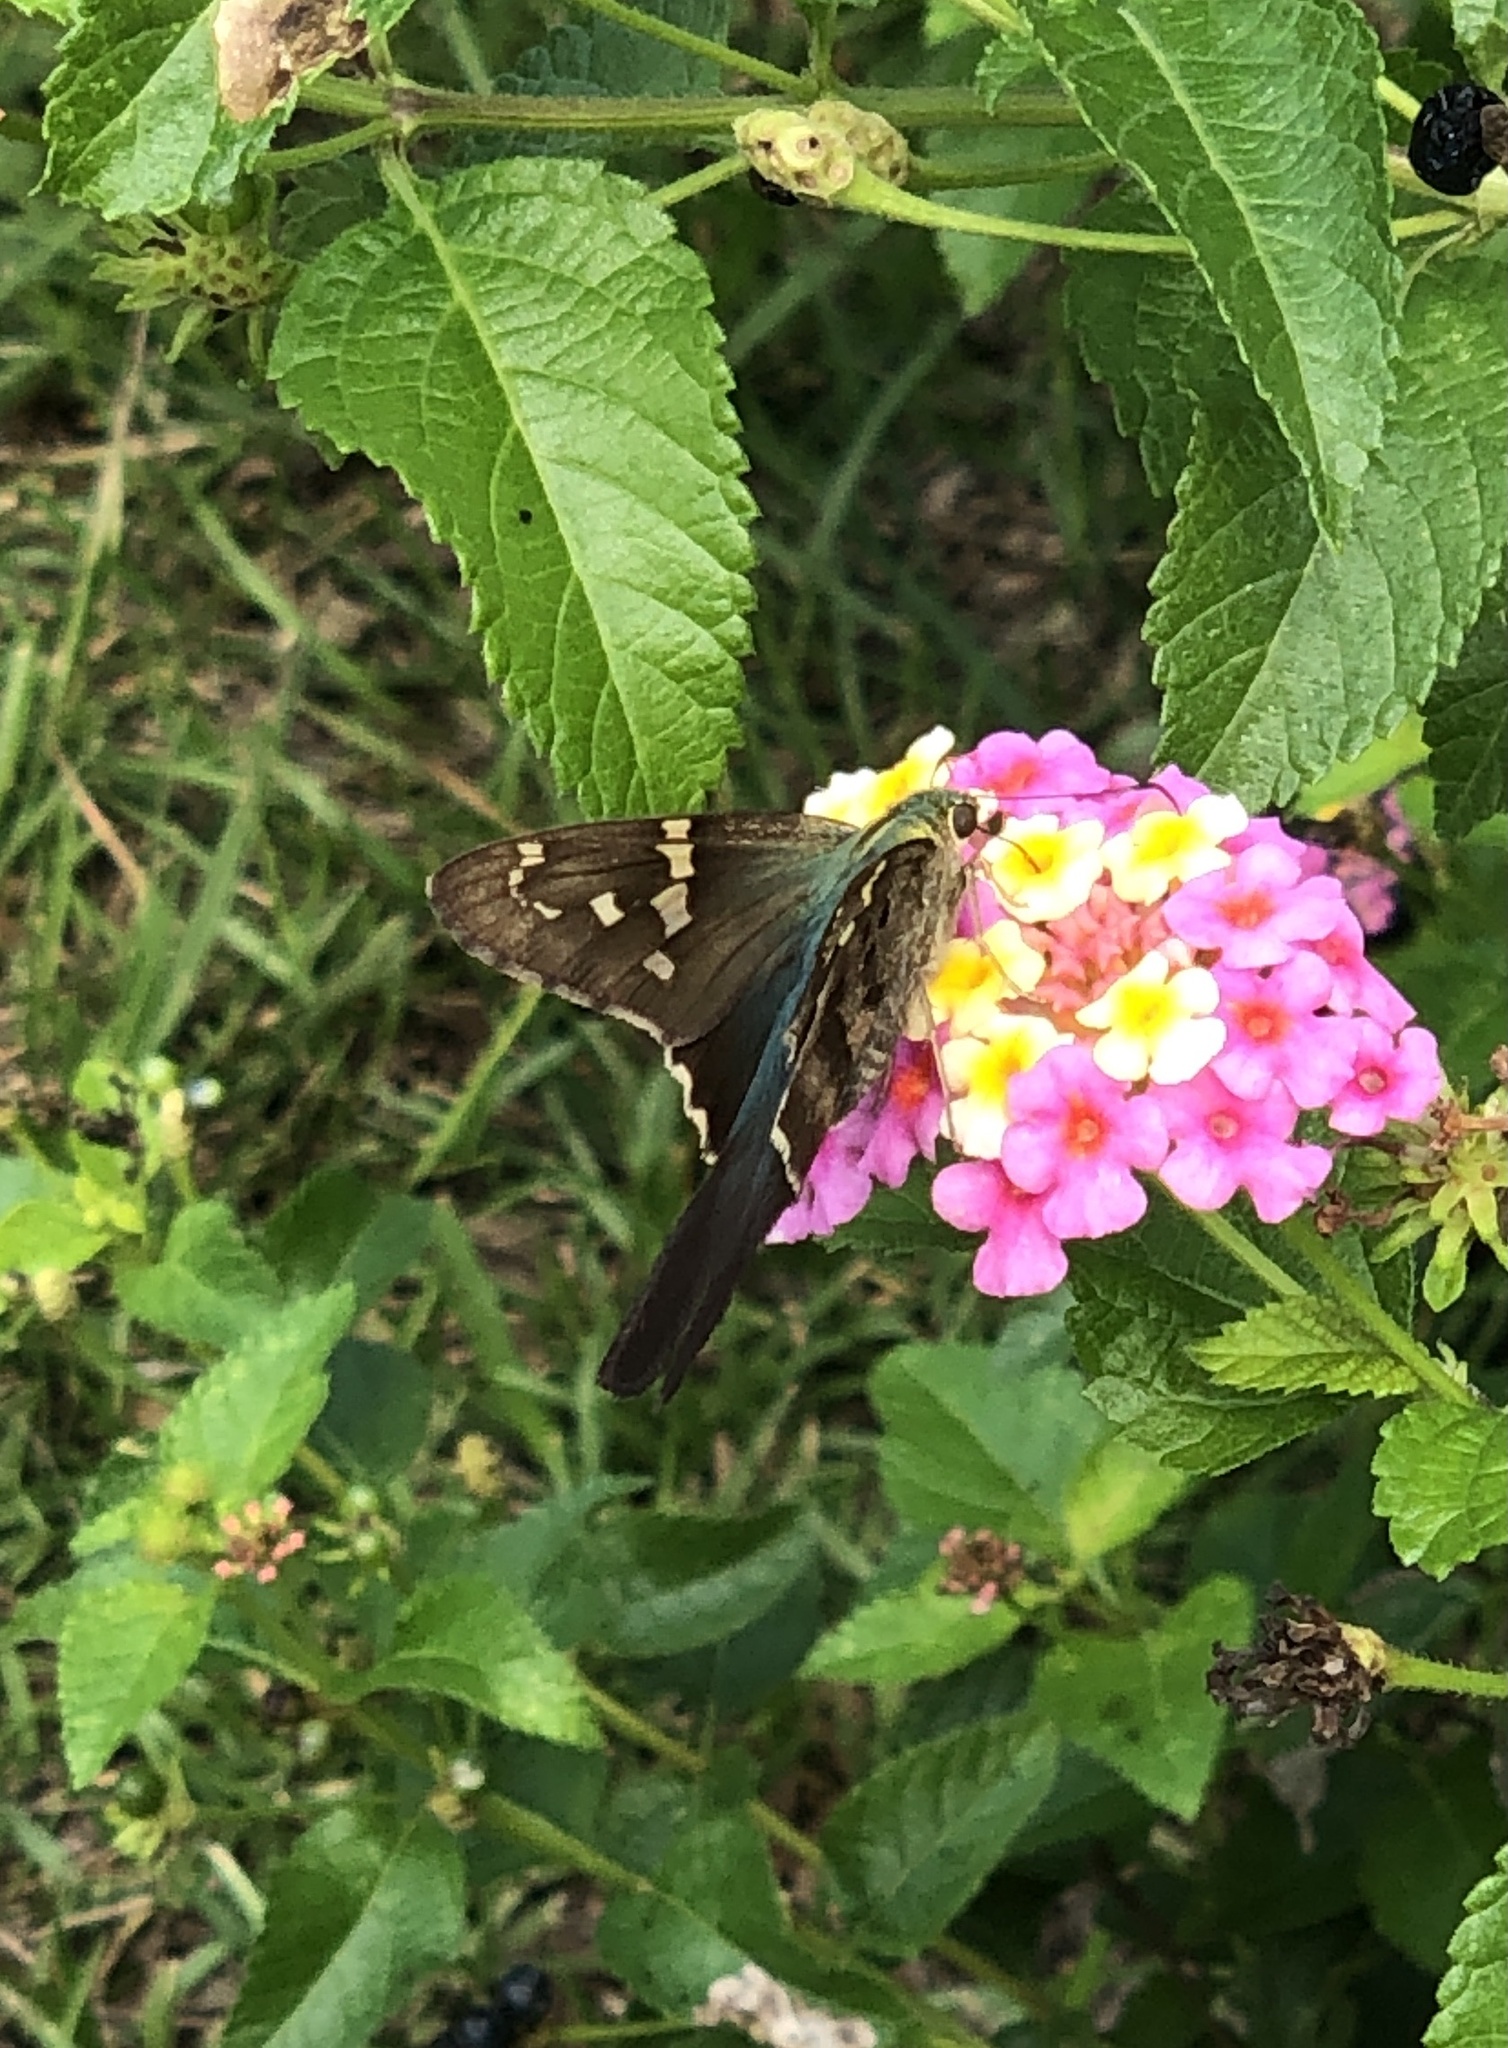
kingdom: Animalia
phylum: Arthropoda
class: Insecta
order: Lepidoptera
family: Hesperiidae
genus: Urbanus
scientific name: Urbanus proteus
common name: Long-tailed skipper
